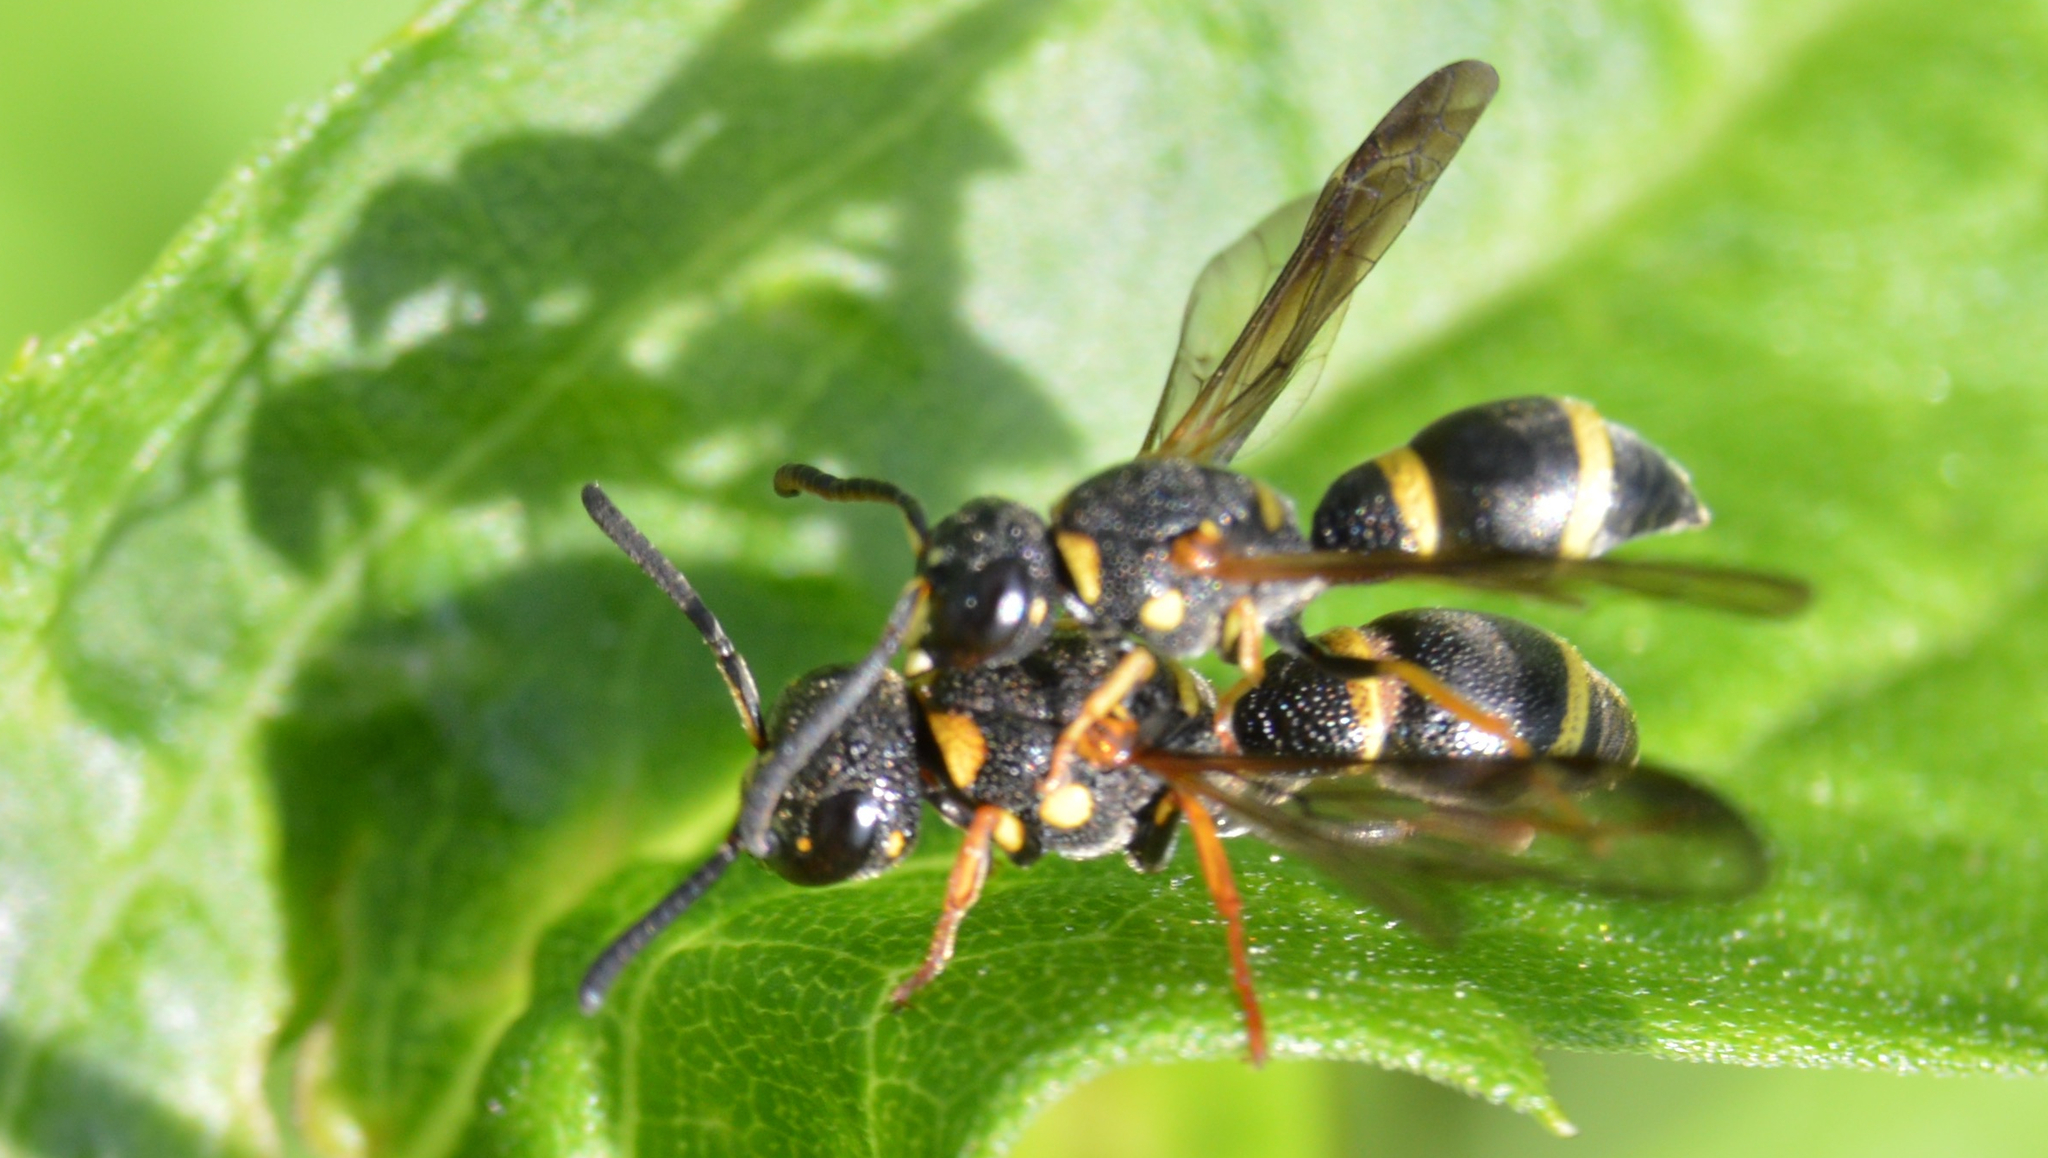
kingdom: Animalia
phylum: Arthropoda
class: Insecta
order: Hymenoptera
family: Eumenidae
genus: Parancistrocerus
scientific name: Parancistrocerus perennis
